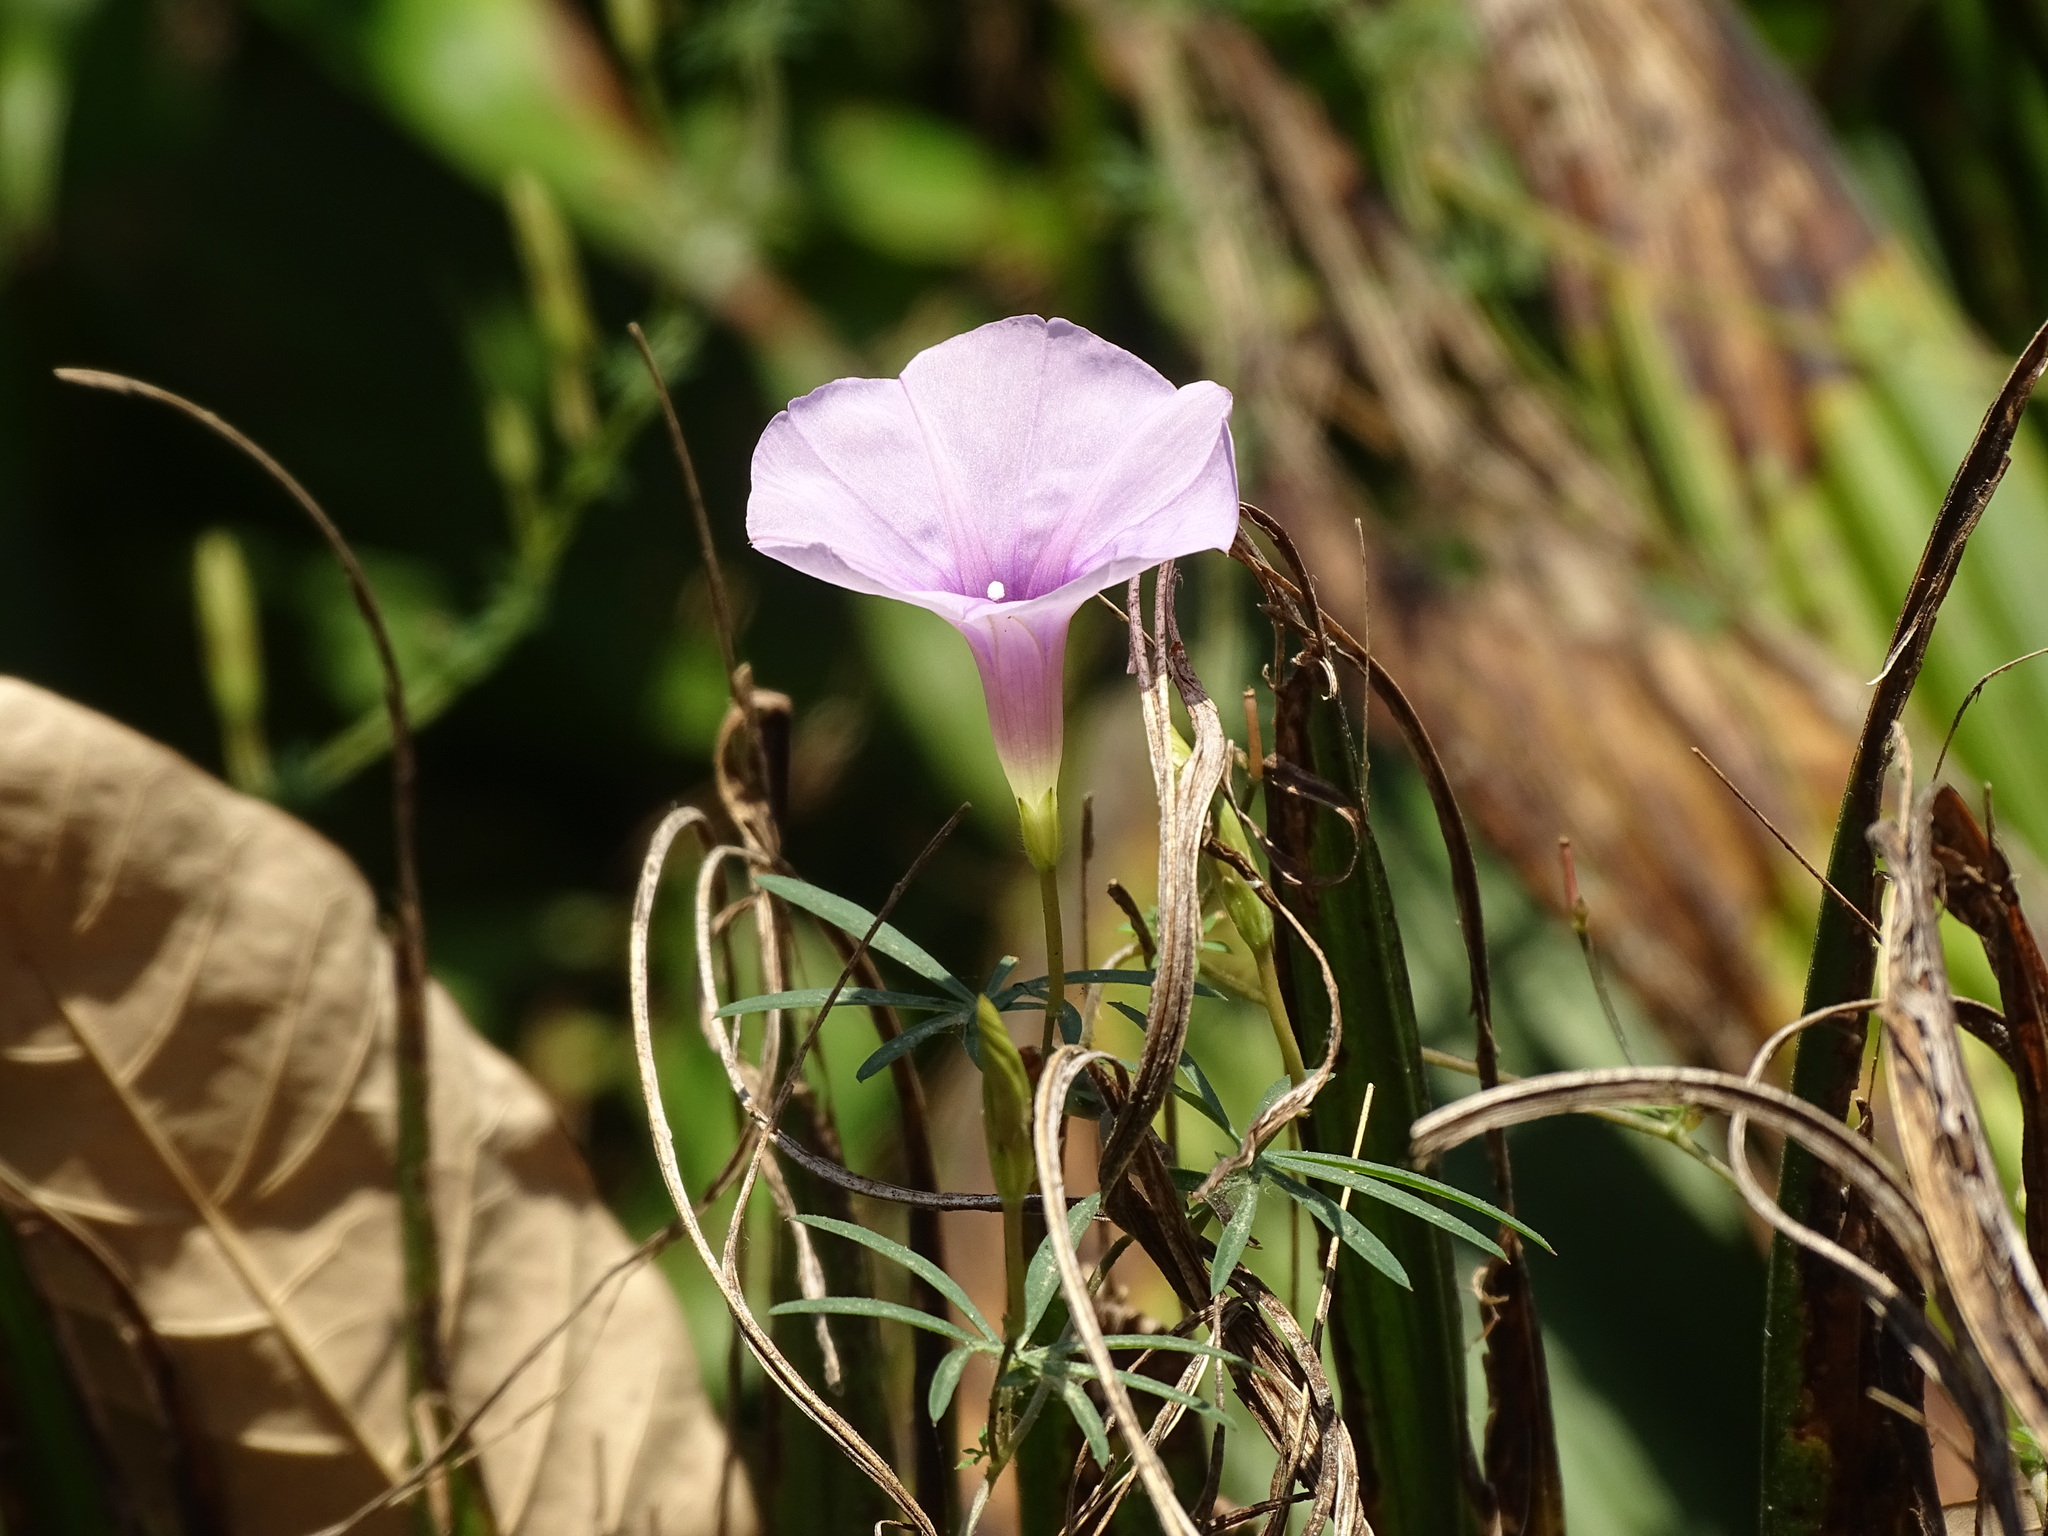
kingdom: Plantae
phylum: Tracheophyta
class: Magnoliopsida
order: Solanales
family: Convolvulaceae
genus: Ipomoea
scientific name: Ipomoea ternifolia
